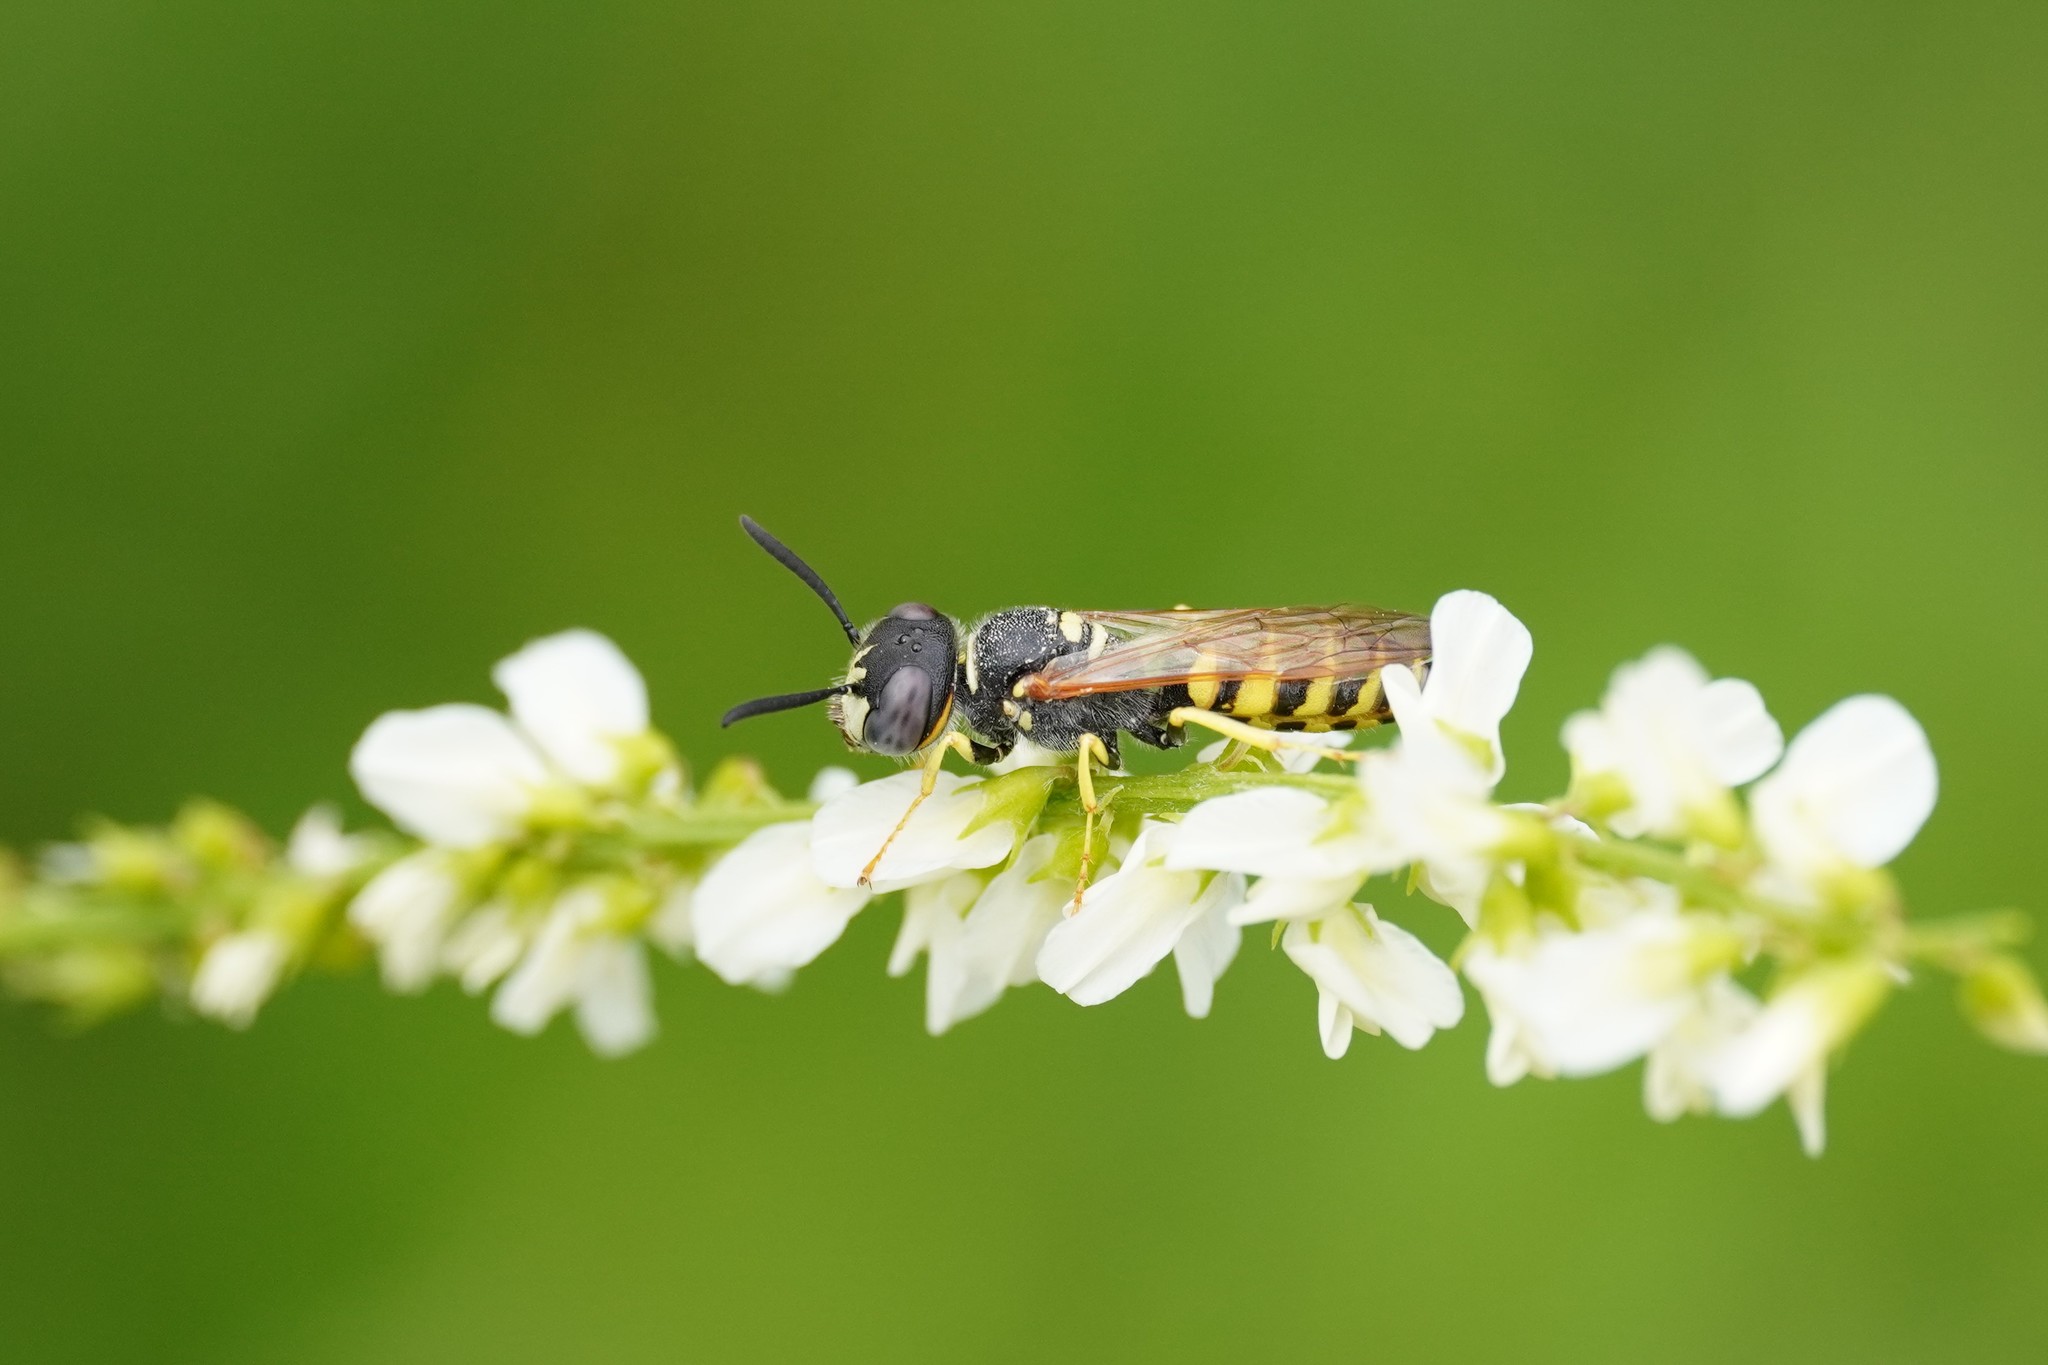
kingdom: Animalia
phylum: Arthropoda
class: Insecta
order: Hymenoptera
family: Crabronidae
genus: Philanthus
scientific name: Philanthus triangulum
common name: Bee wolf
